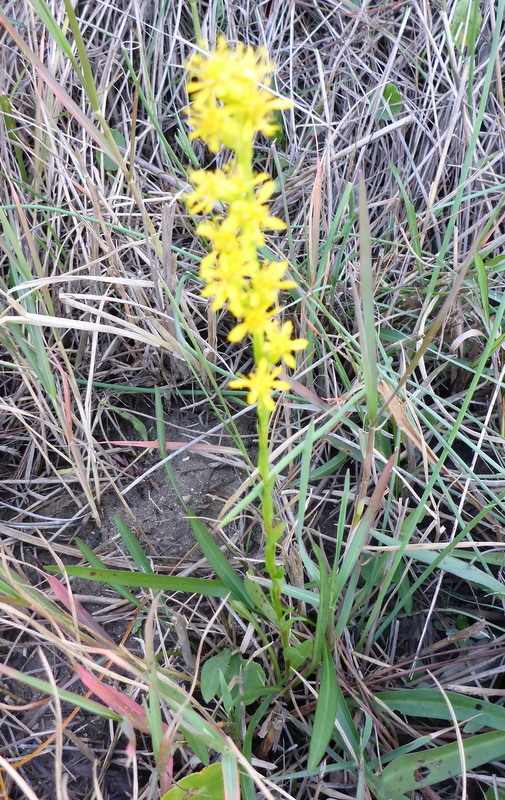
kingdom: Plantae
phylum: Tracheophyta
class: Magnoliopsida
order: Asterales
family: Asteraceae
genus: Solidago
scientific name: Solidago virgata
